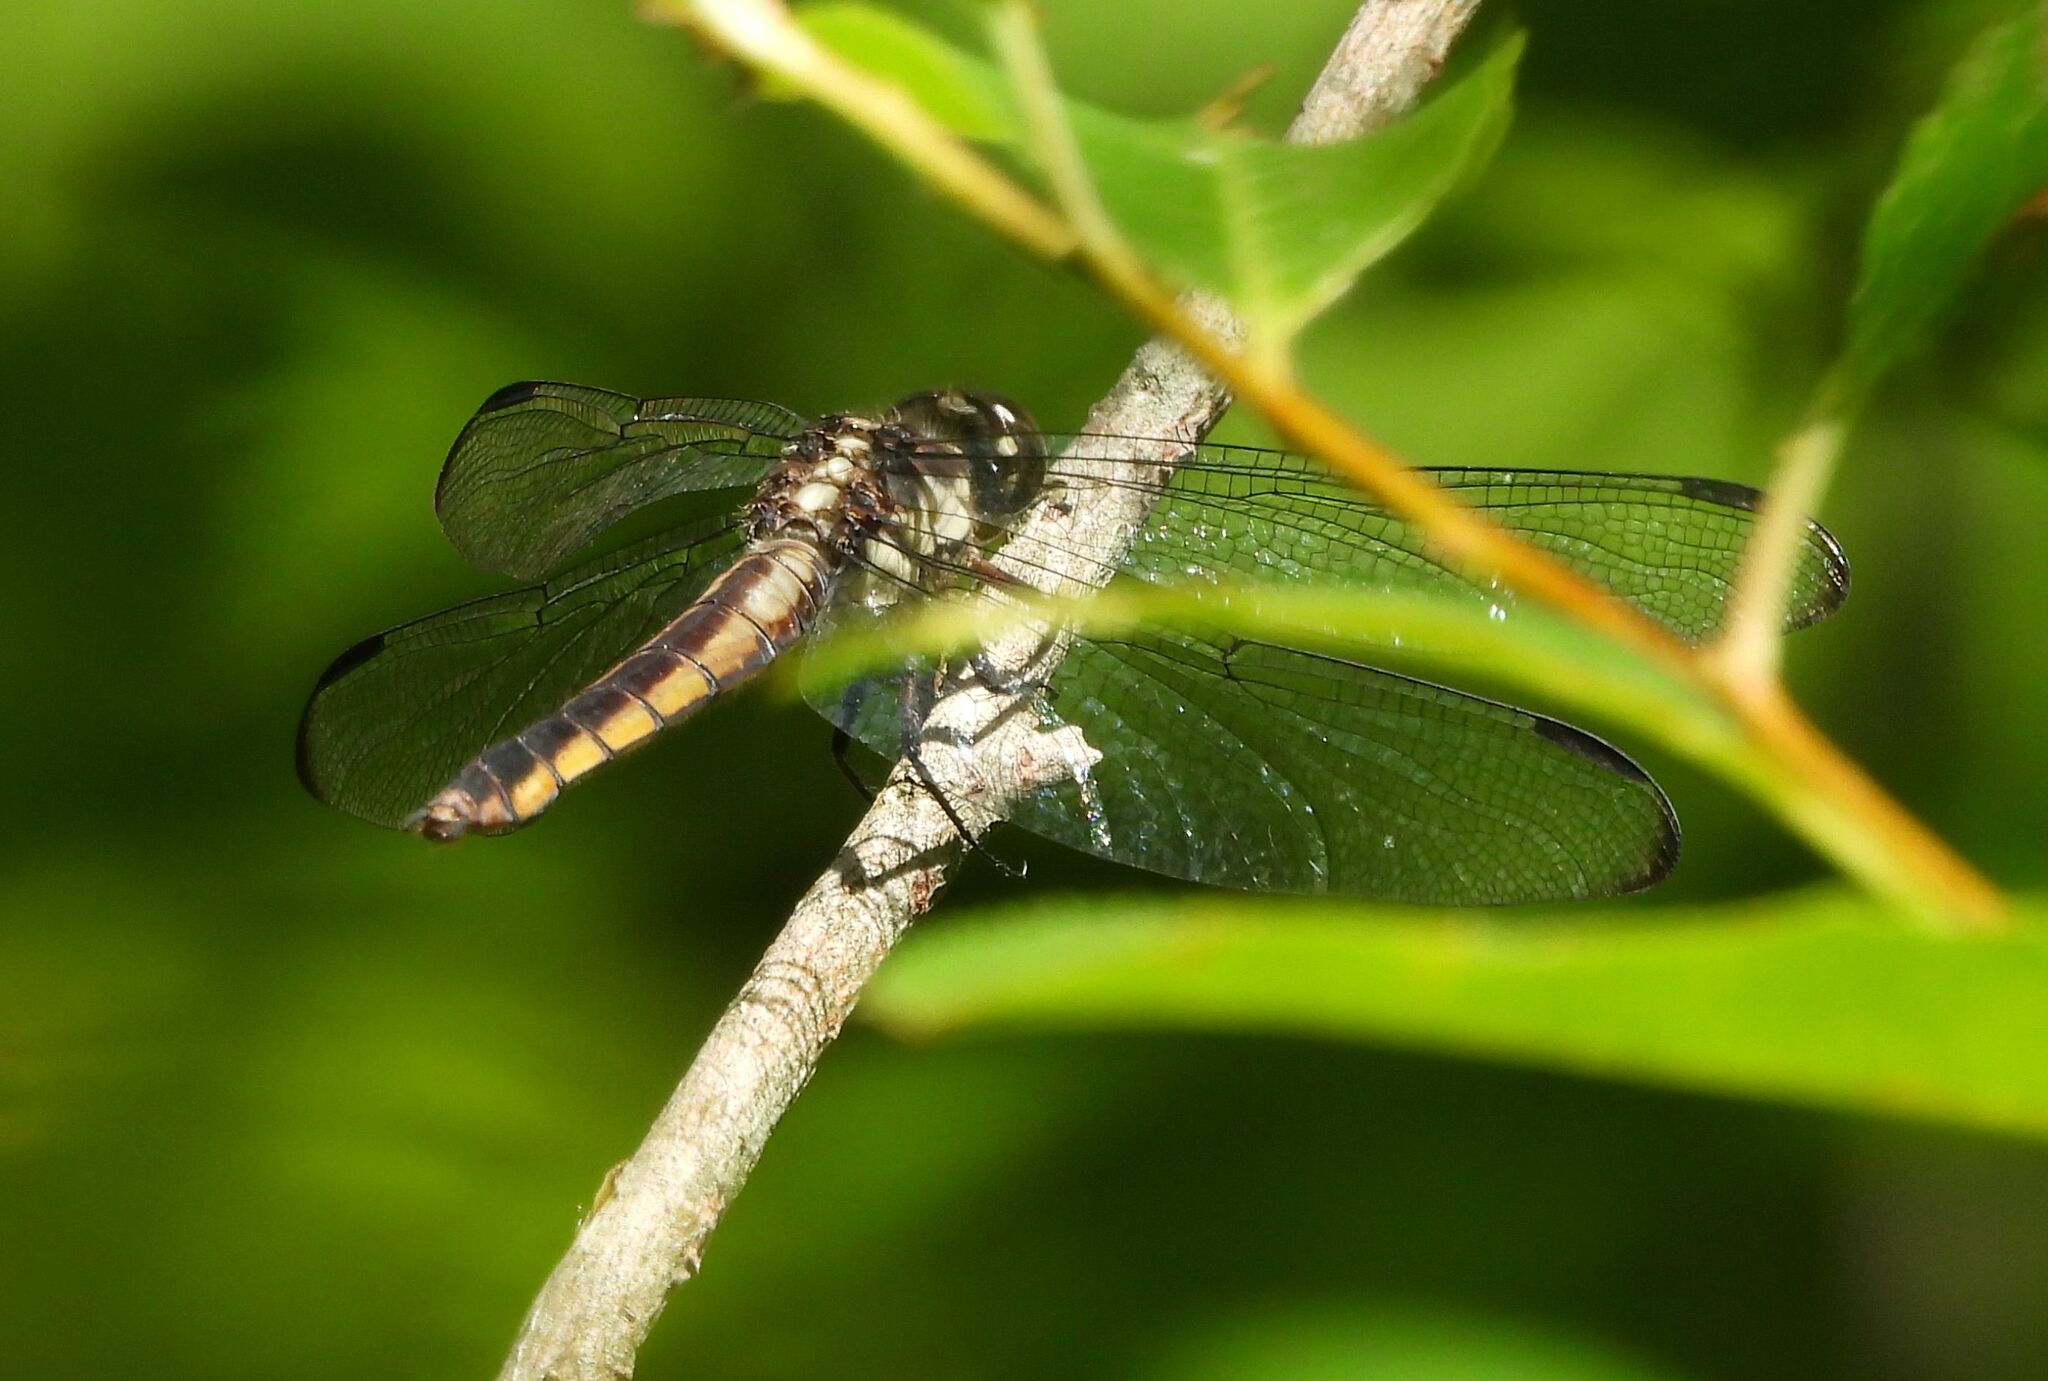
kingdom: Animalia
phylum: Arthropoda
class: Insecta
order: Odonata
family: Libellulidae
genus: Libellula
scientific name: Libellula incesta
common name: Slaty skimmer
